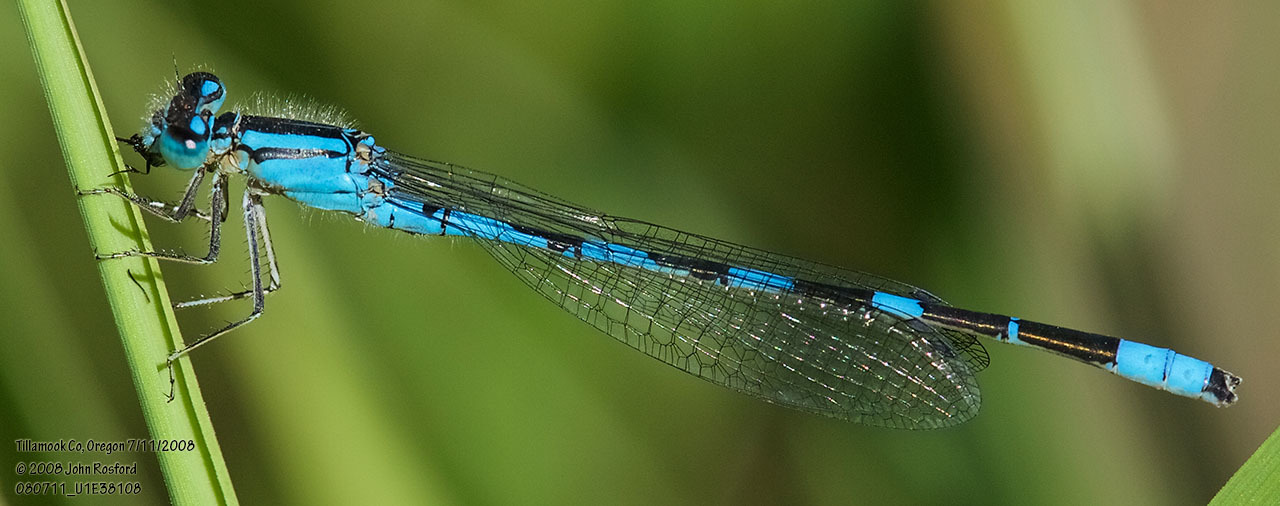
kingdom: Animalia
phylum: Arthropoda
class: Insecta
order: Odonata
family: Coenagrionidae
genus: Enallagma
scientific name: Enallagma carunculatum
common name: Tule bluet
